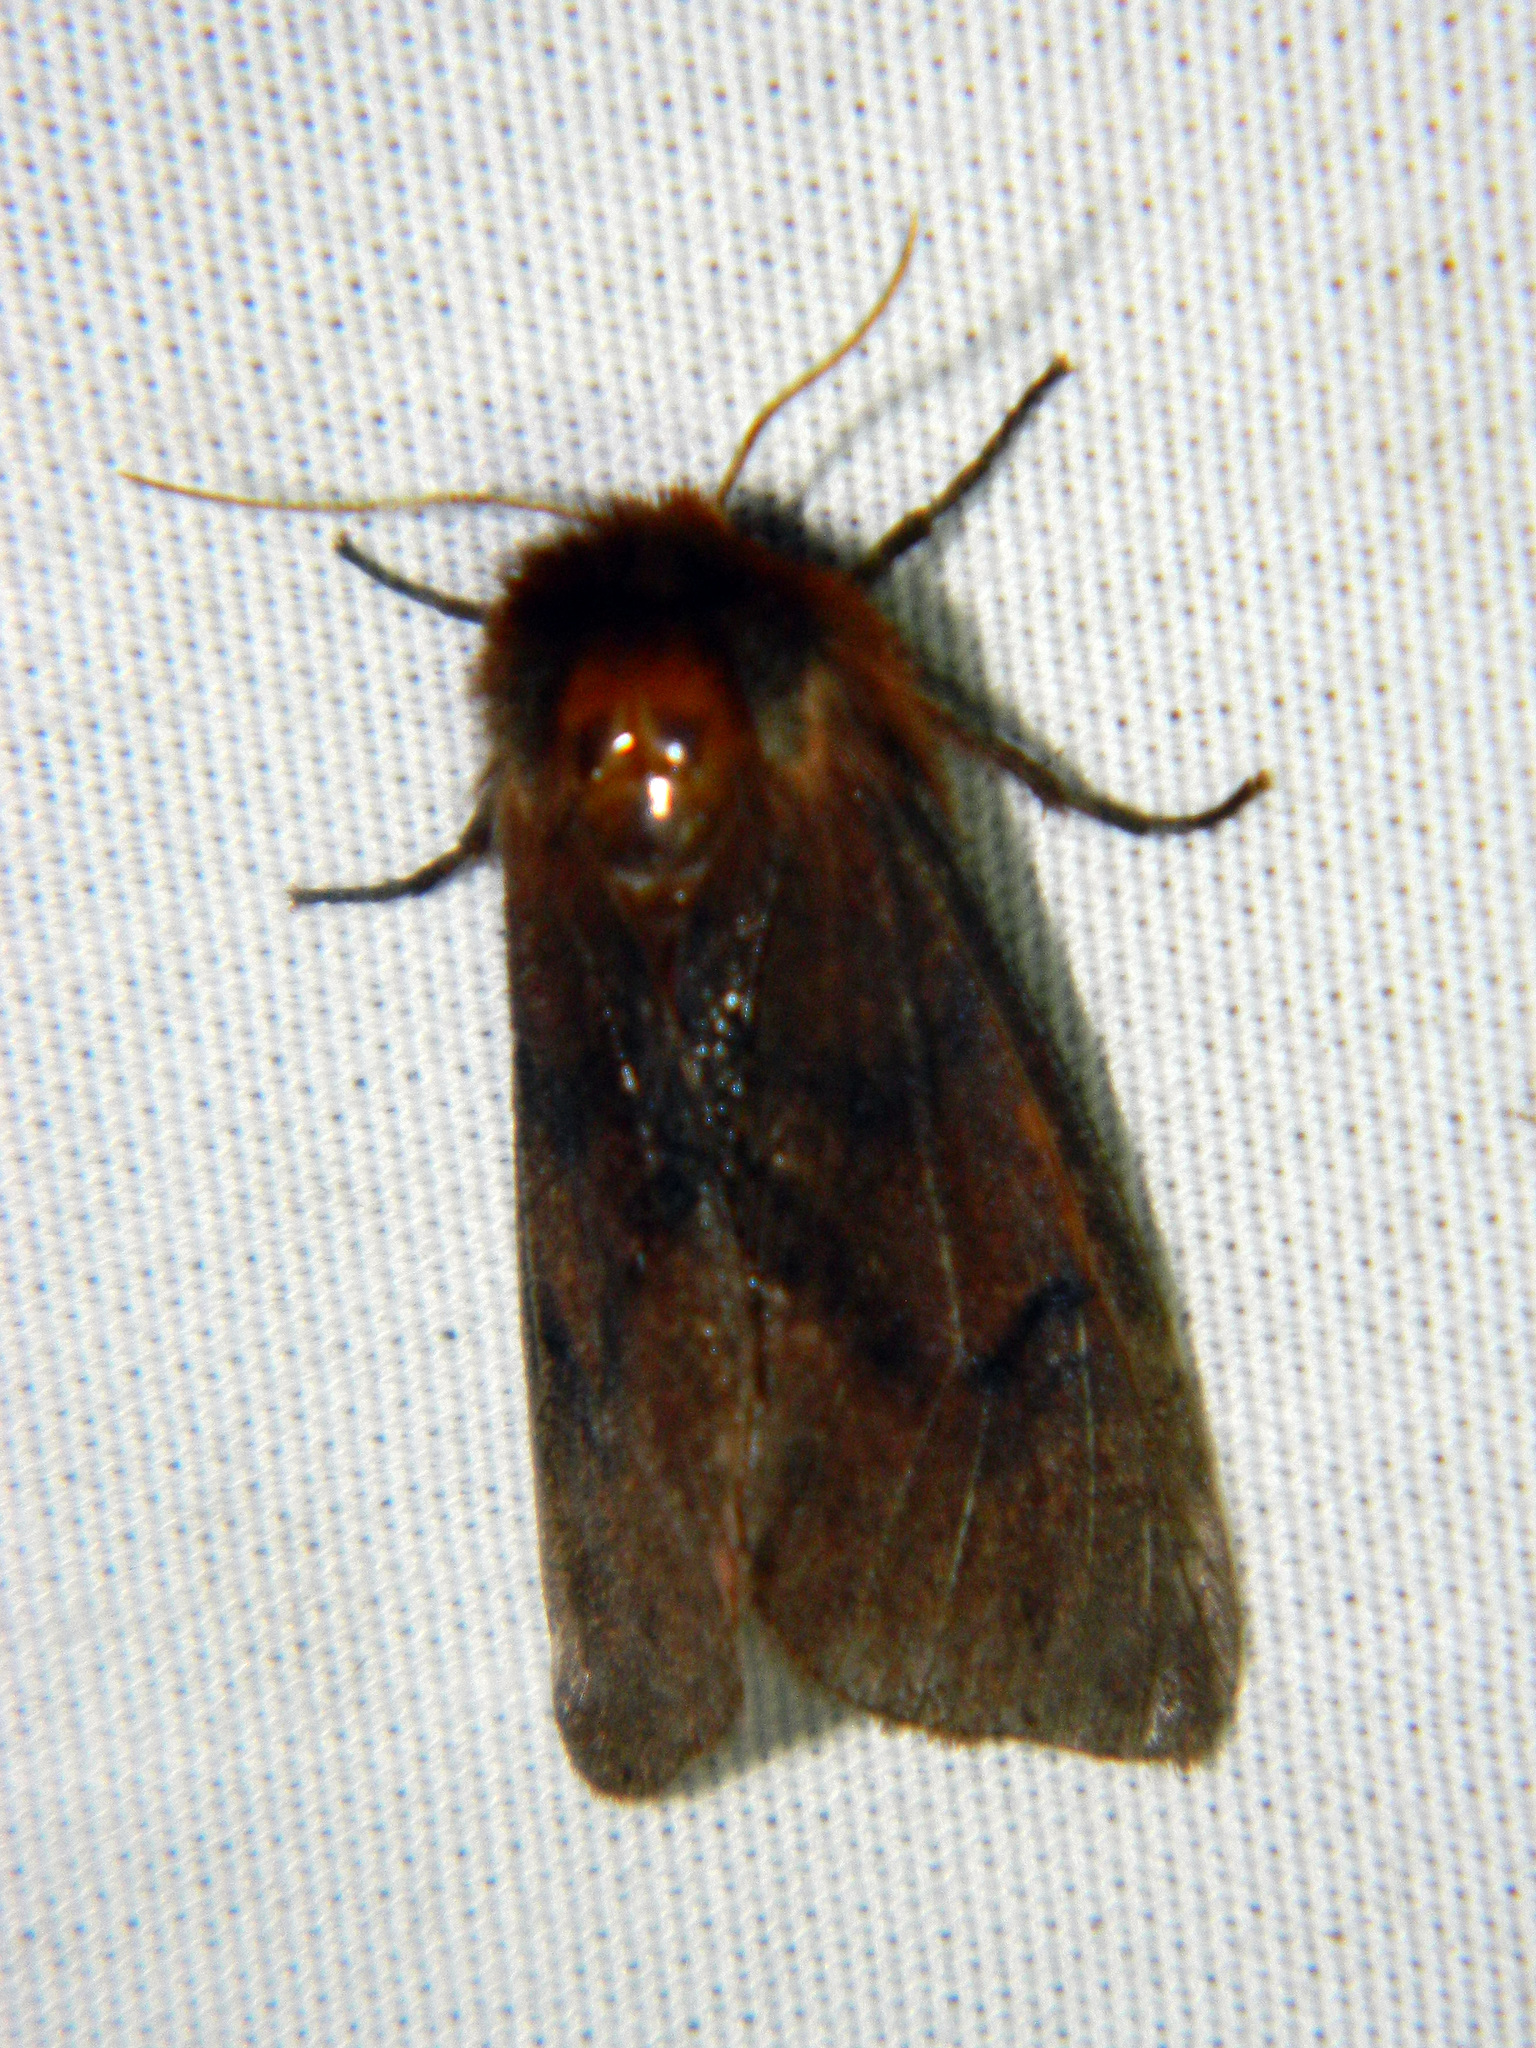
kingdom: Animalia
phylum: Arthropoda
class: Insecta
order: Lepidoptera
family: Erebidae
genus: Phragmatobia
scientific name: Phragmatobia assimilans
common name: Large ruby tiger moth
